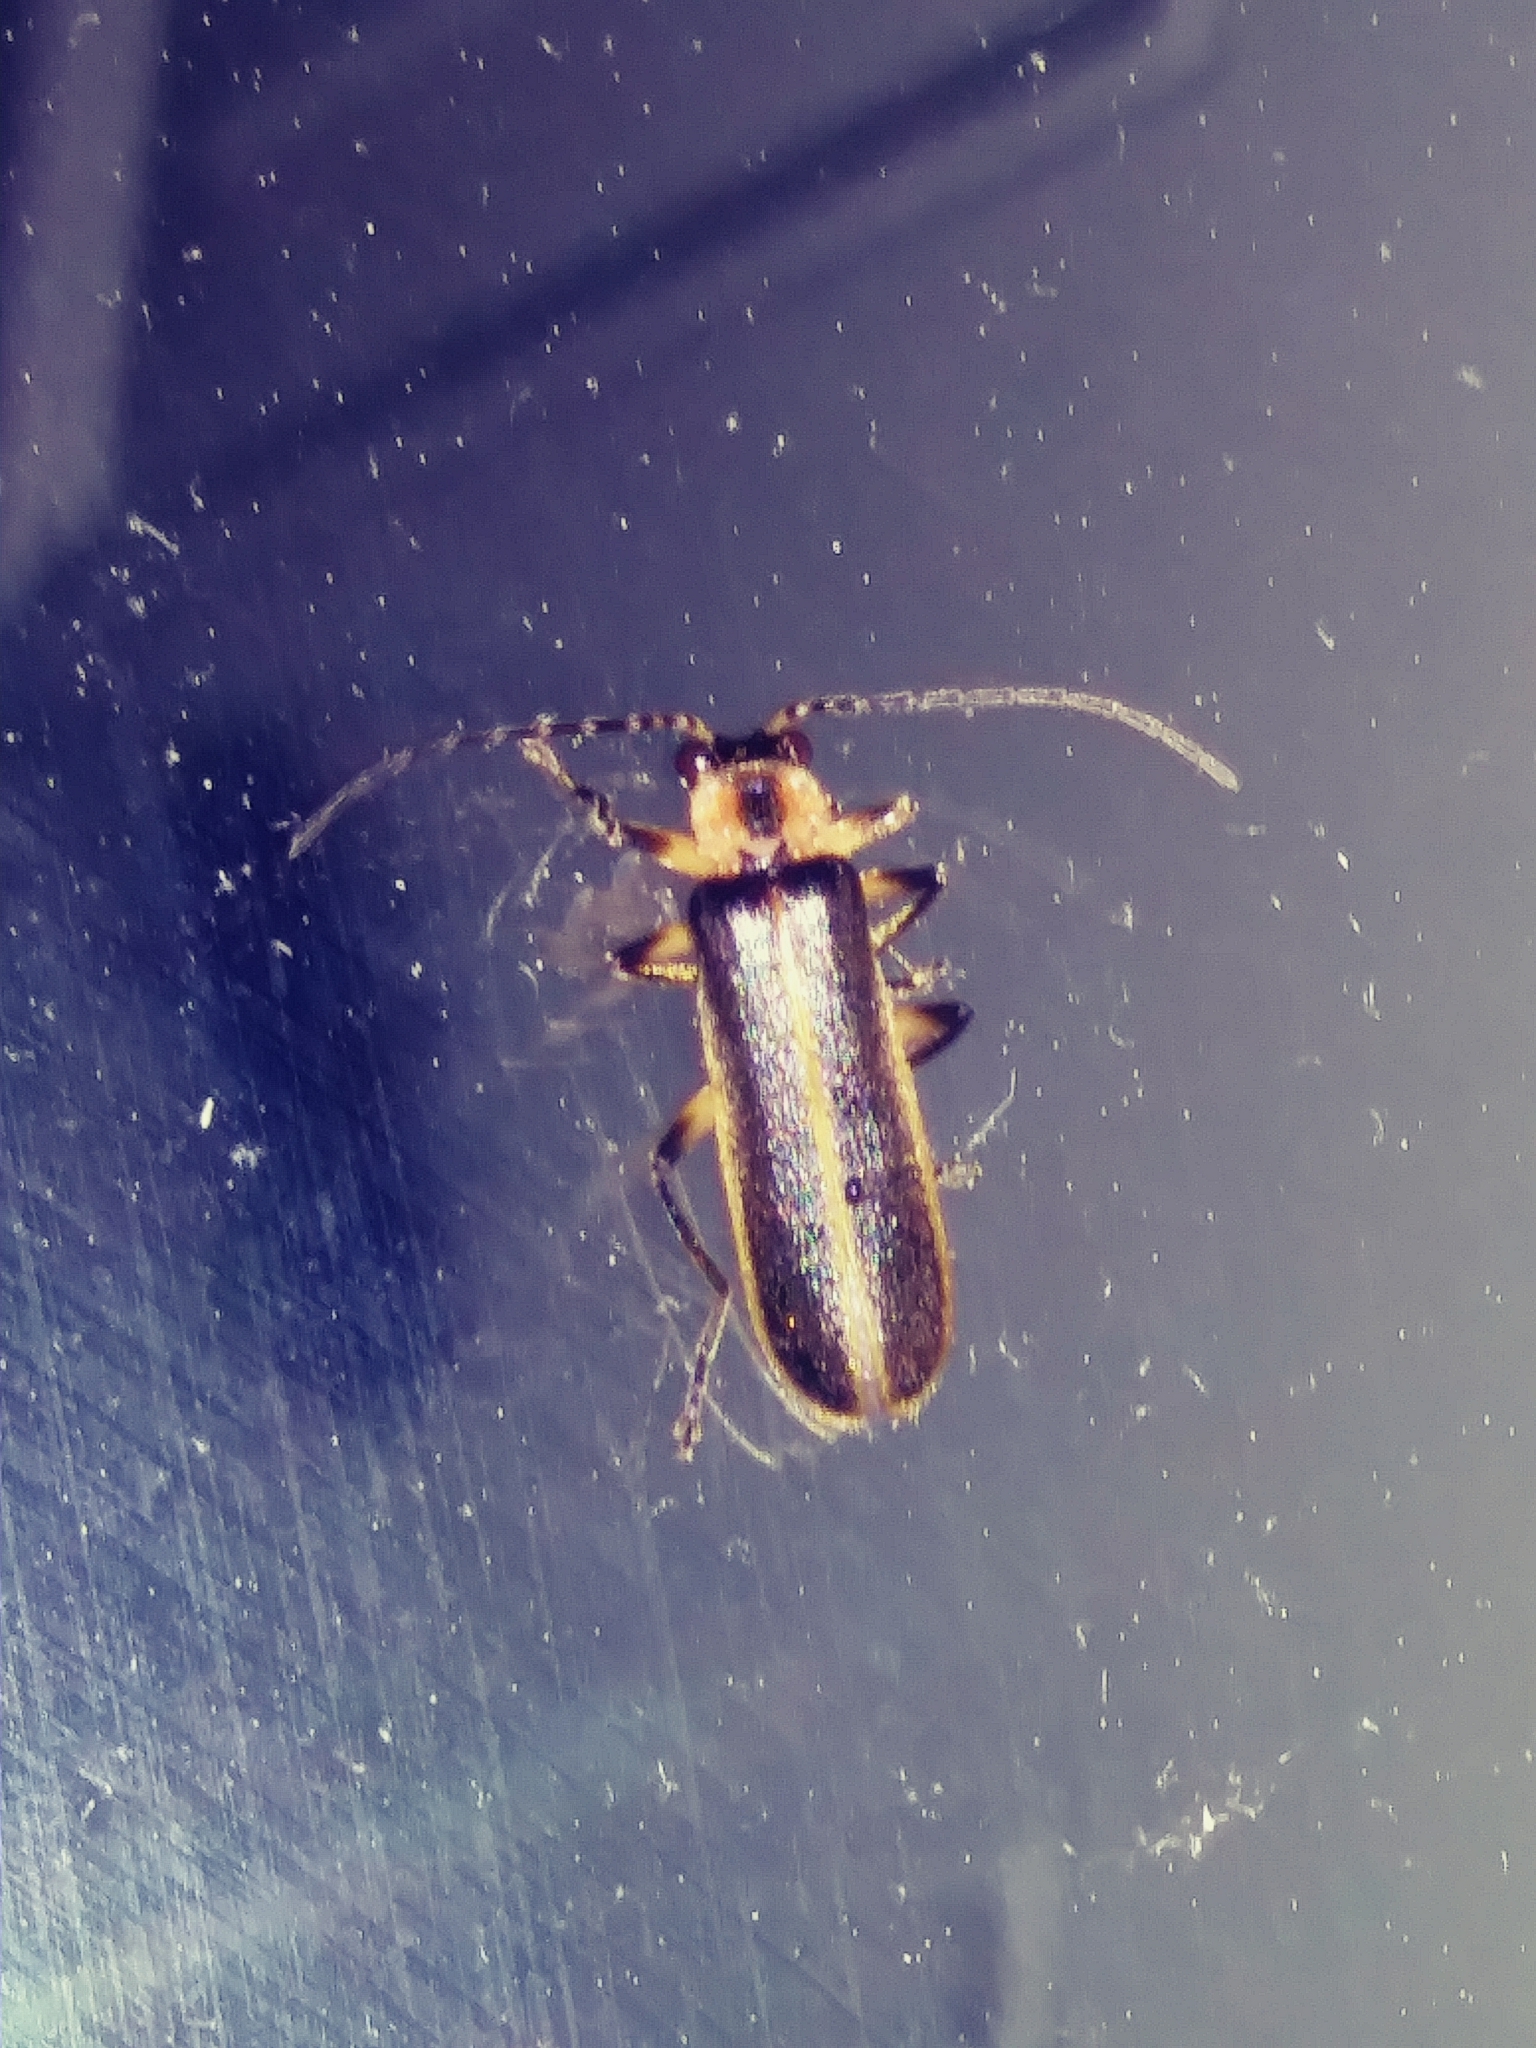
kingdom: Animalia
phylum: Arthropoda
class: Insecta
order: Coleoptera
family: Cantharidae
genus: Podabrus
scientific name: Podabrus basilaris
